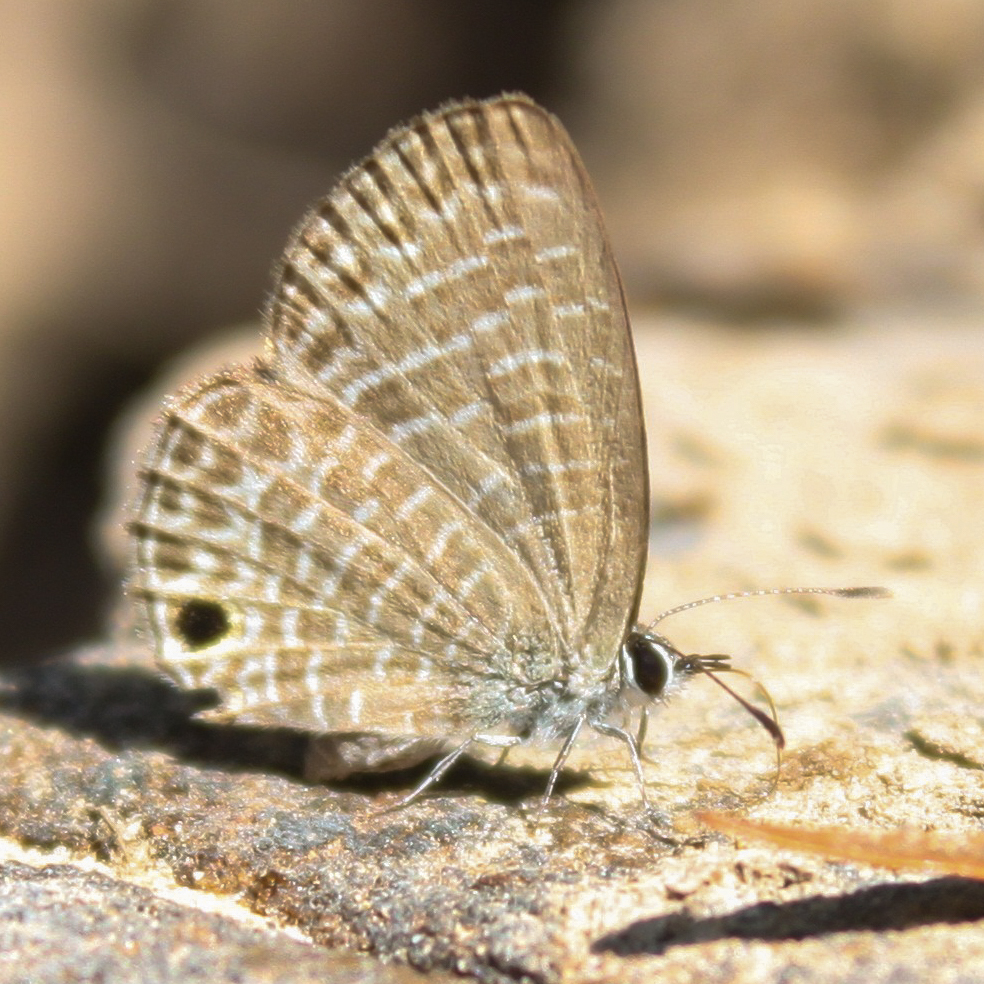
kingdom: Animalia
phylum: Arthropoda
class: Insecta
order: Lepidoptera
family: Lycaenidae
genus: Nacaduba
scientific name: Nacaduba beroe
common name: Opaque sixline blue
